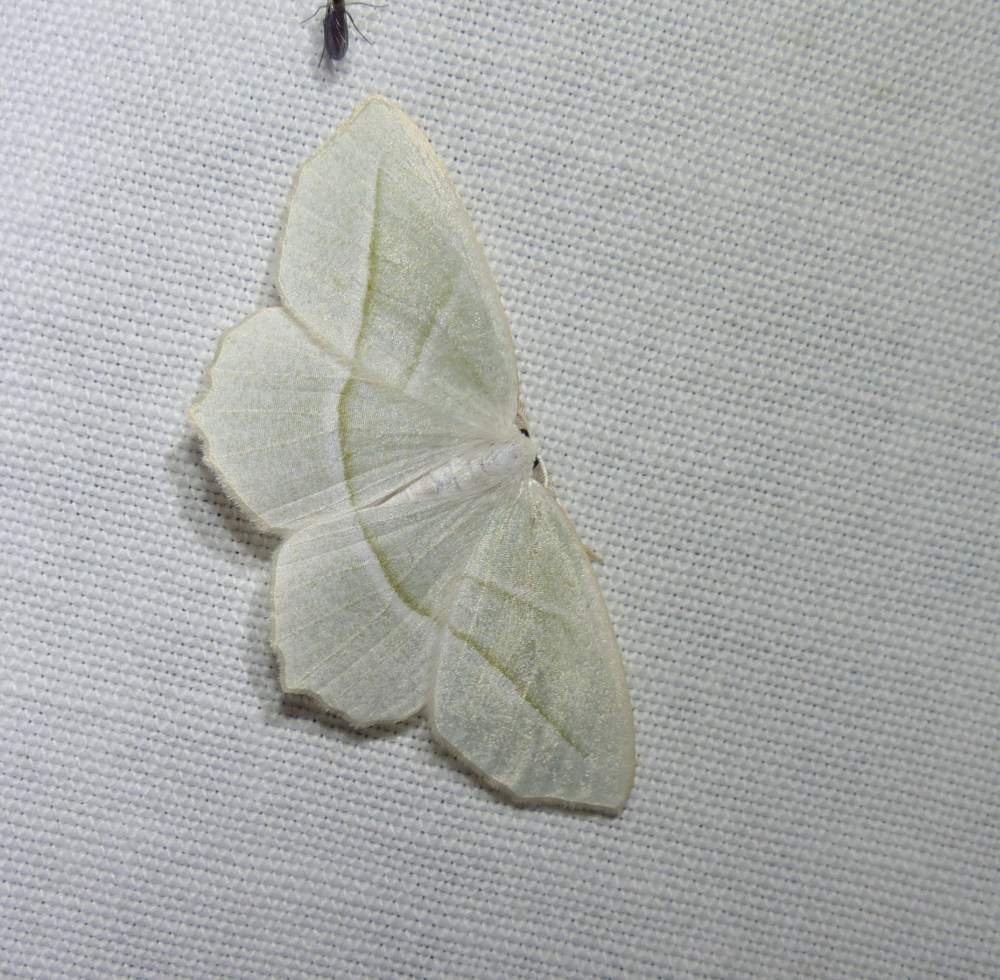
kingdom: Animalia
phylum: Arthropoda
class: Insecta
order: Lepidoptera
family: Geometridae
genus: Campaea
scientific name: Campaea perlata
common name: Fringed looper
